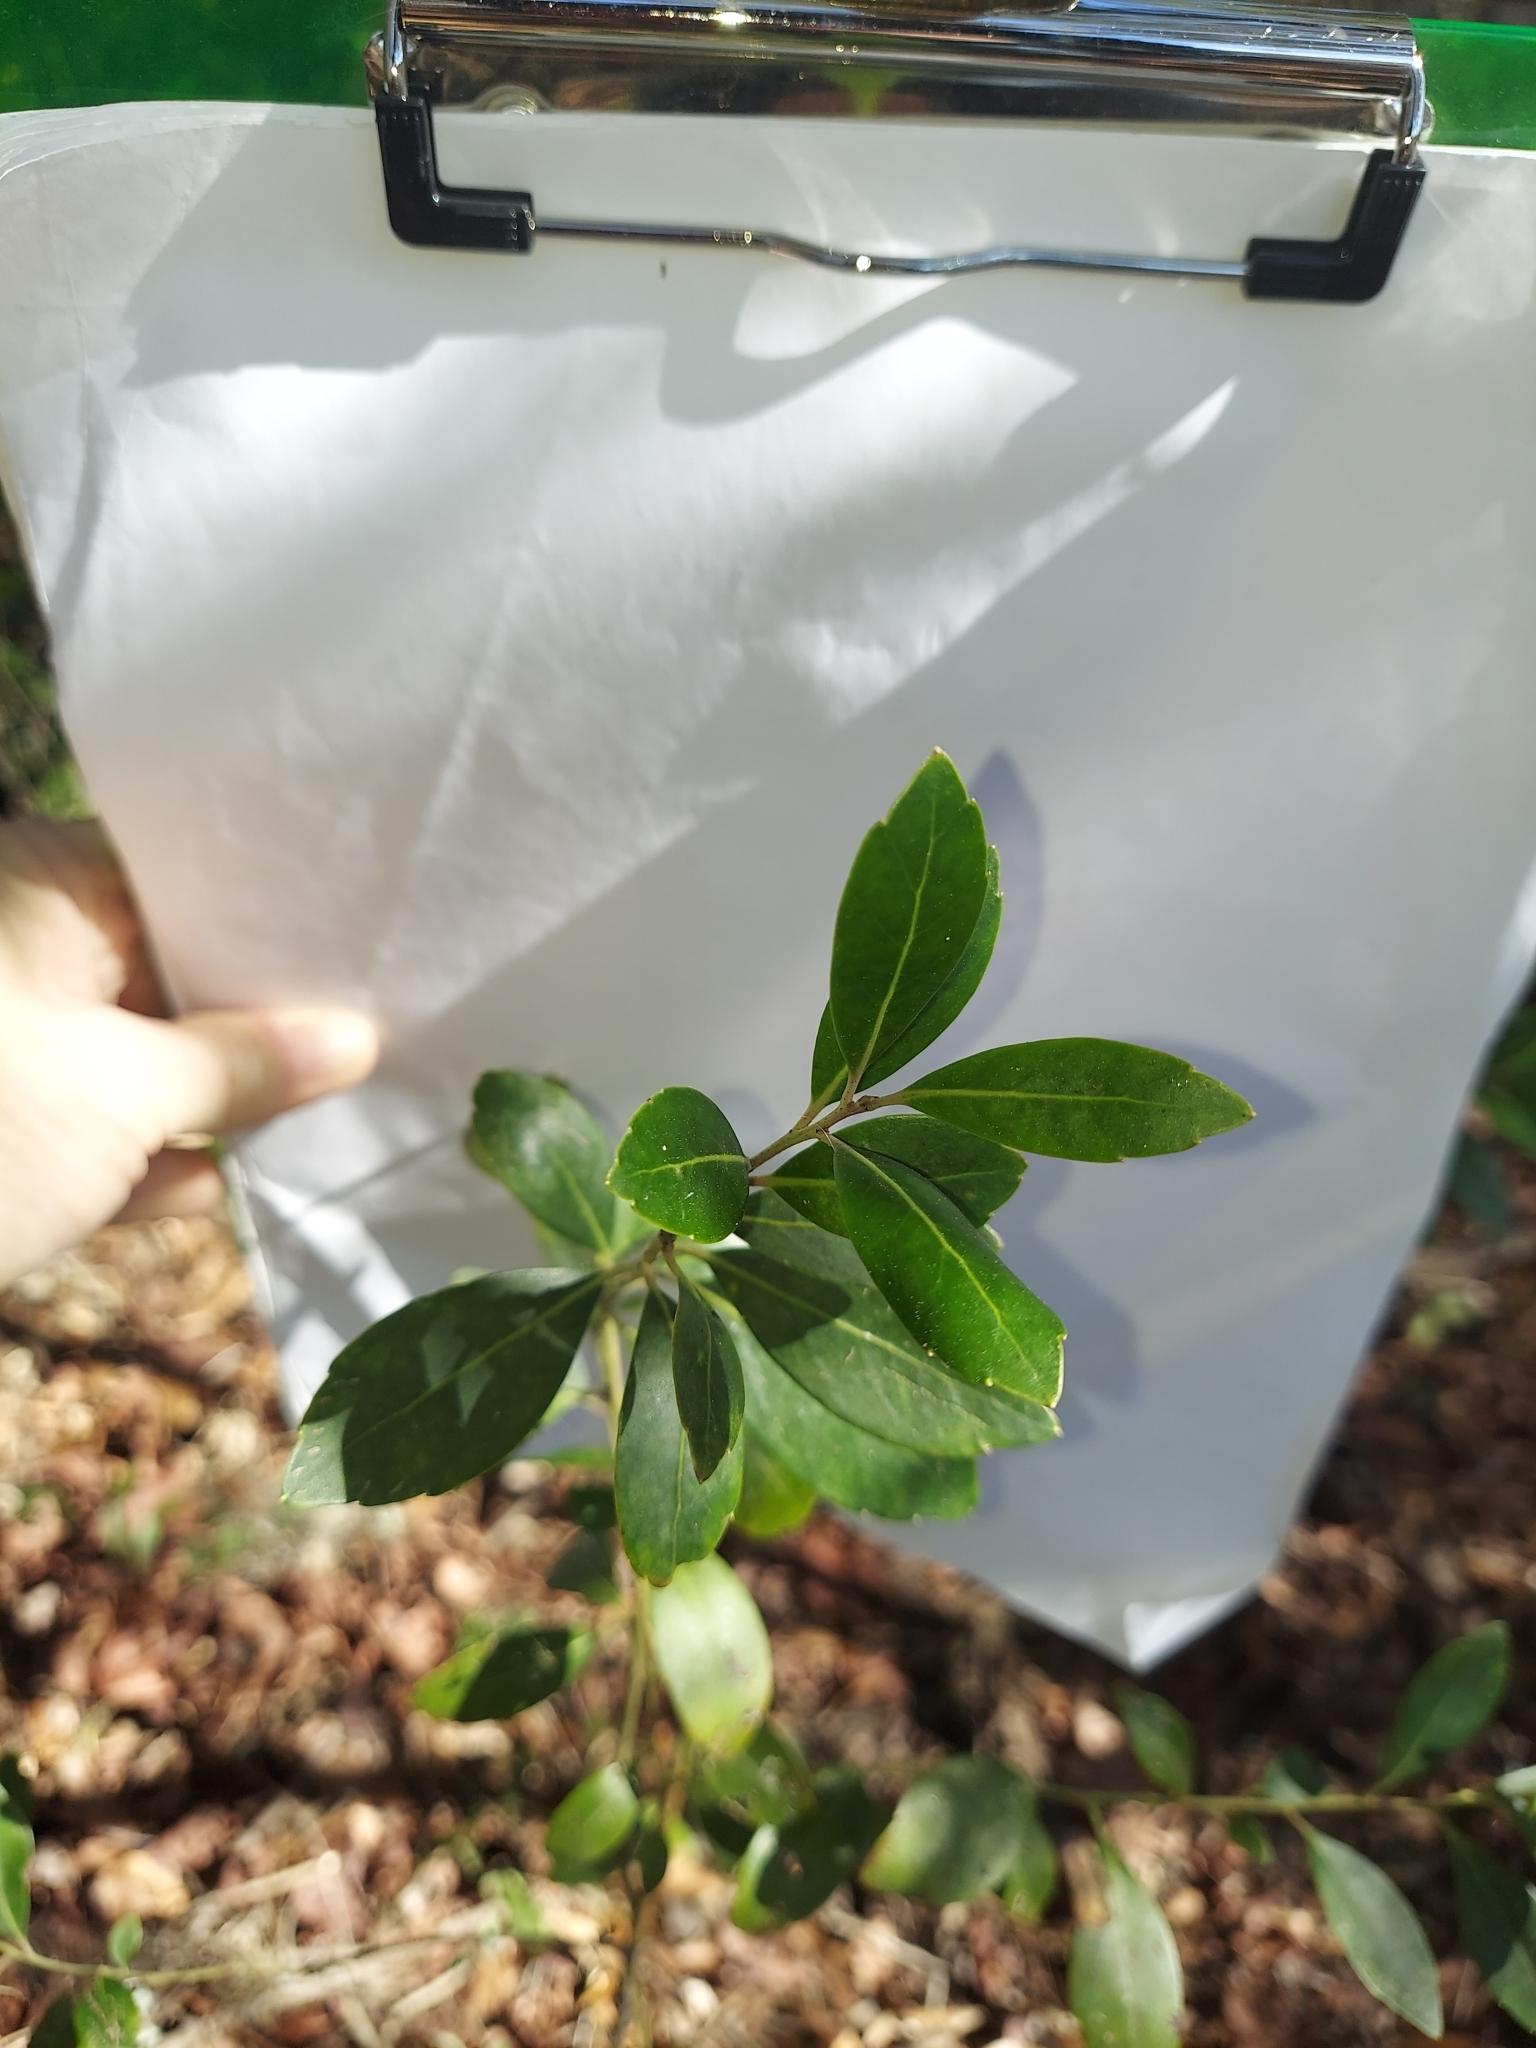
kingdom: Plantae
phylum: Tracheophyta
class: Magnoliopsida
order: Aquifoliales
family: Aquifoliaceae
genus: Ilex
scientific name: Ilex glabra
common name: Bitter gallberry
